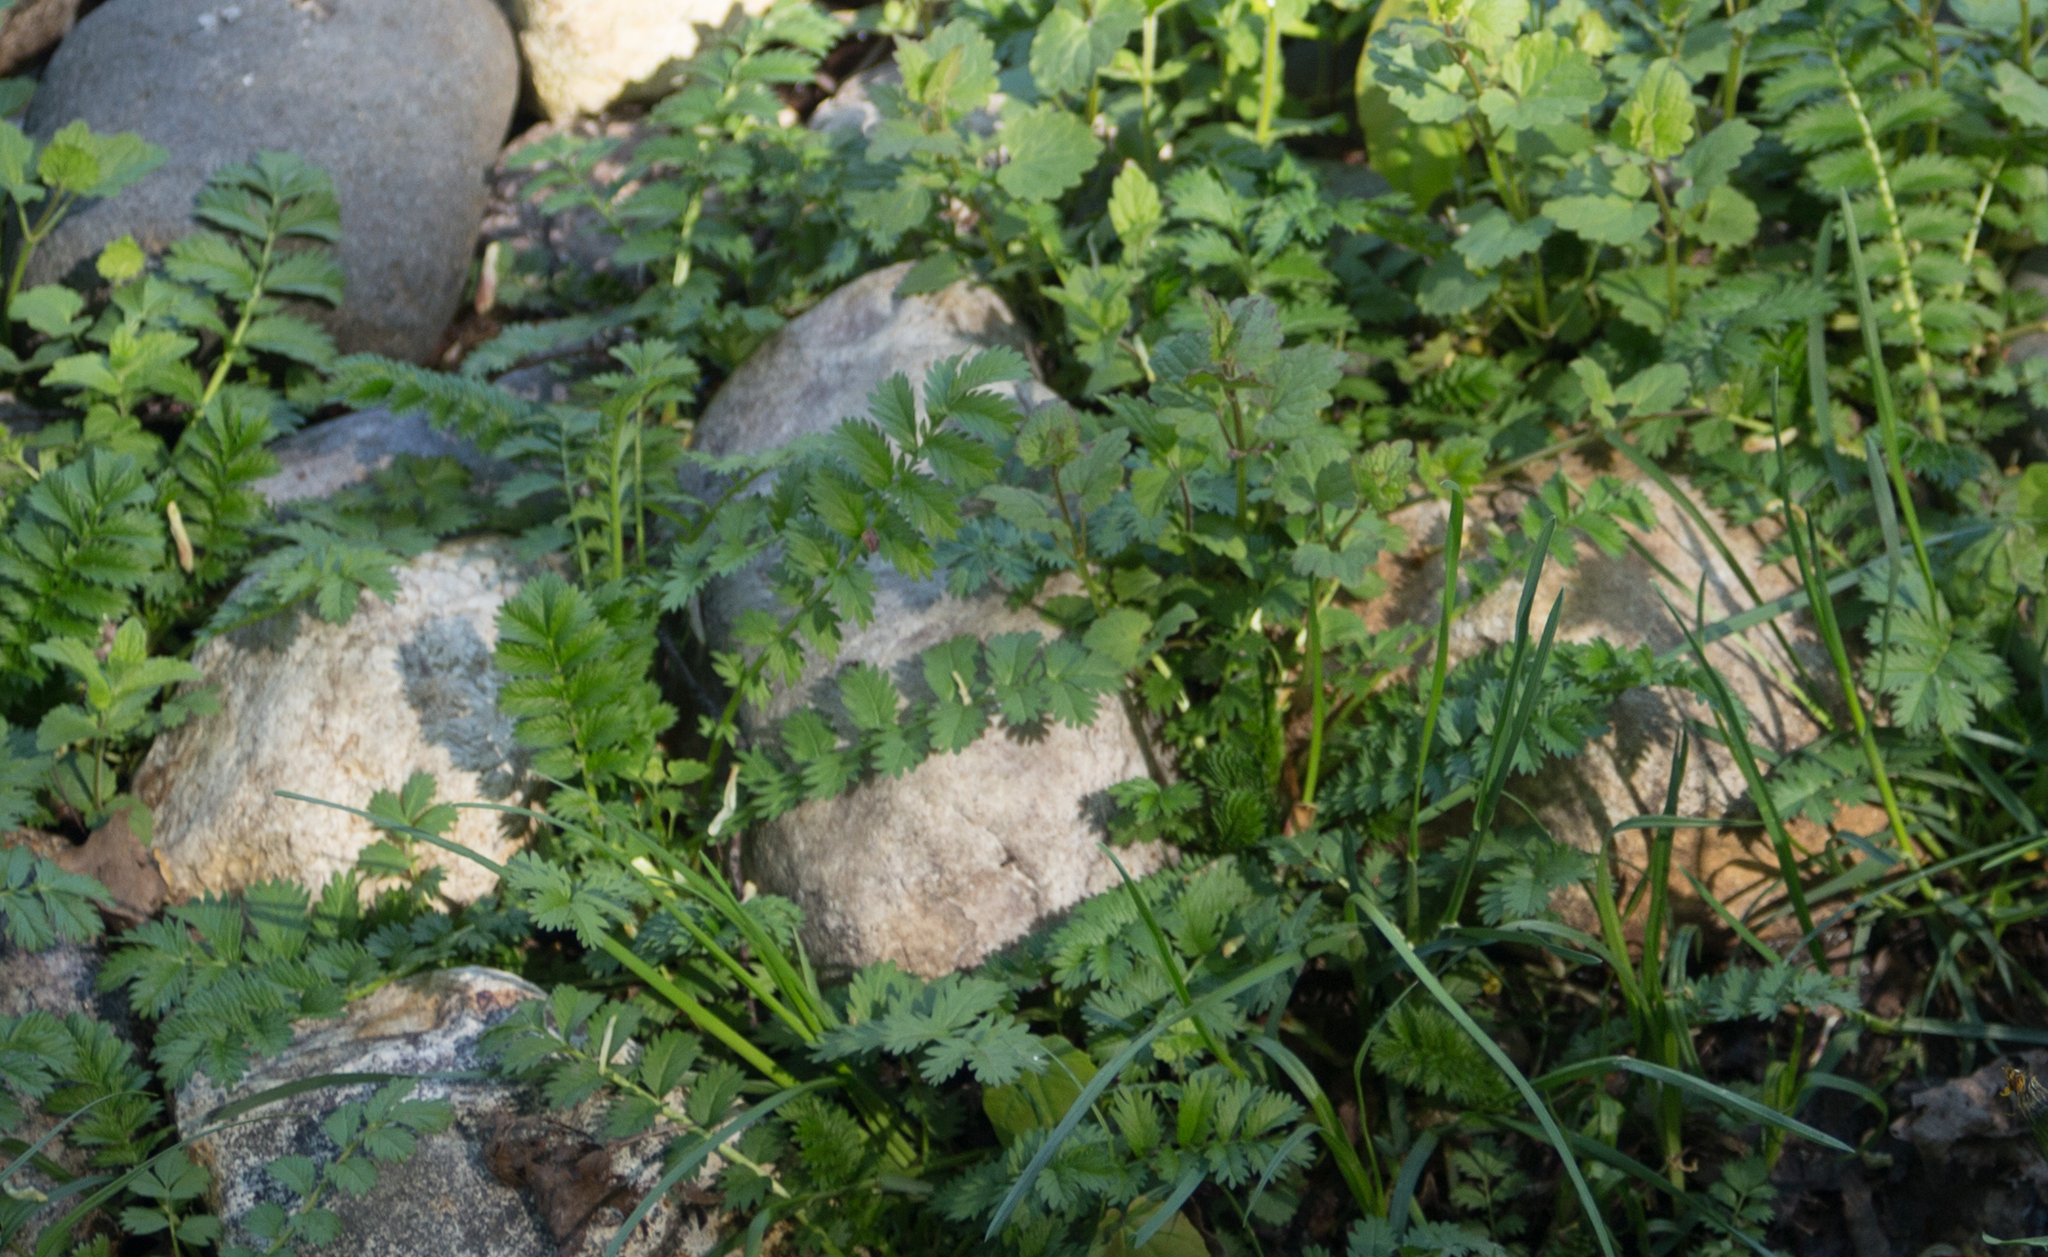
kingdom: Plantae
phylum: Tracheophyta
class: Magnoliopsida
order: Rosales
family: Rosaceae
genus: Argentina
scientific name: Argentina anserina
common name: Common silverweed
